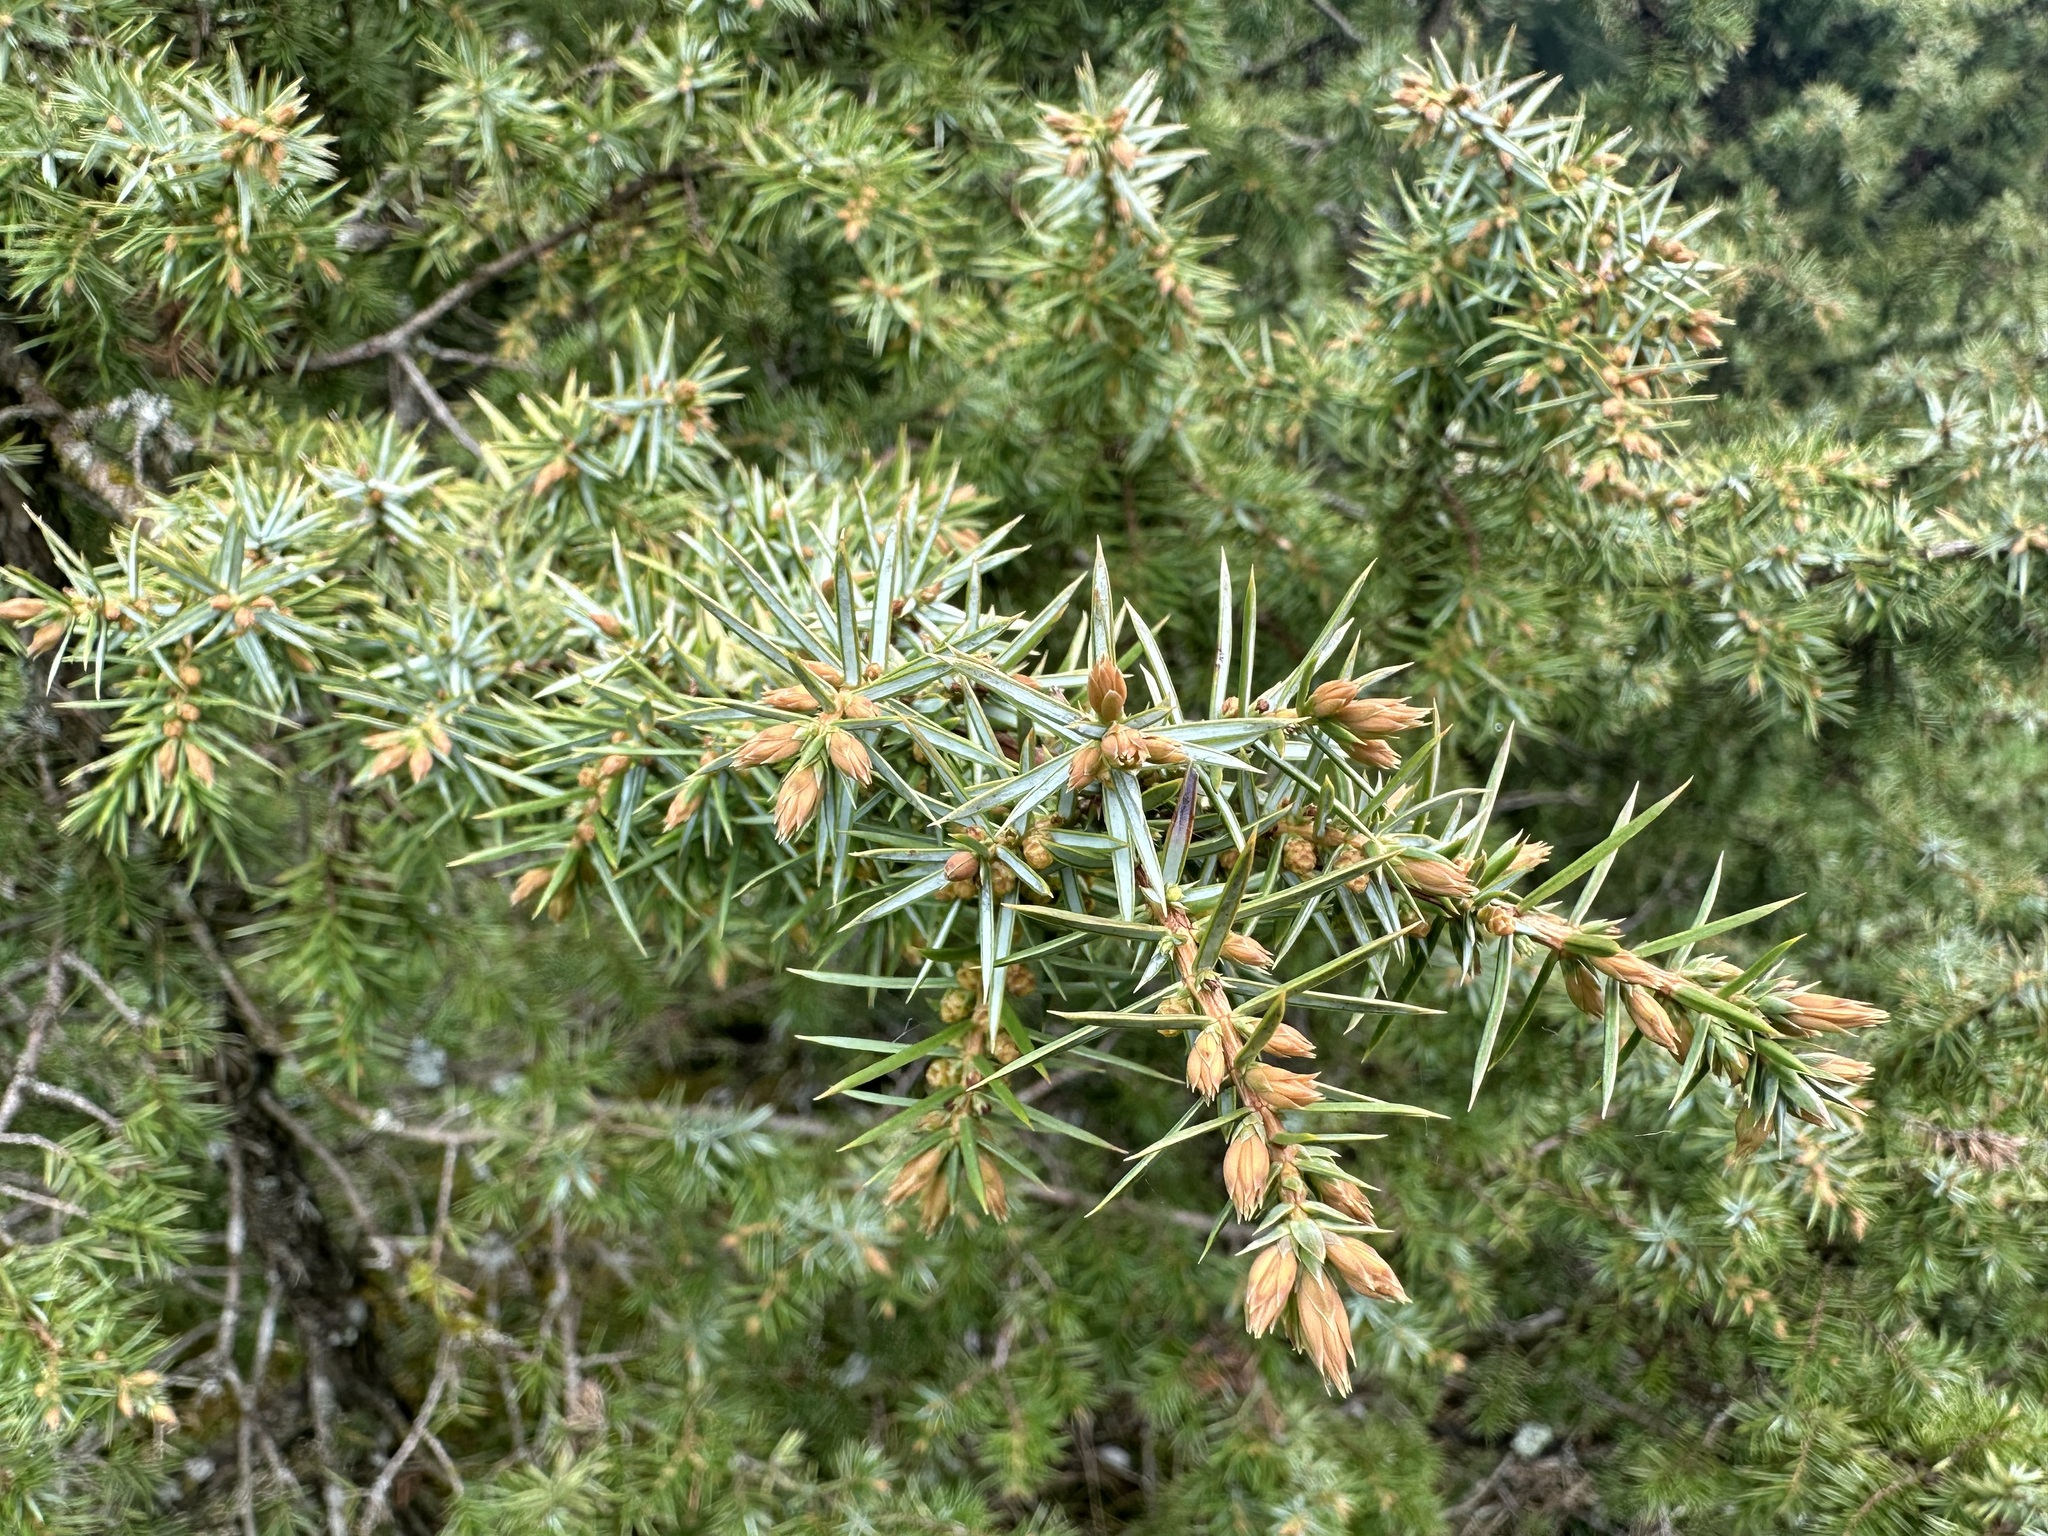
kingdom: Plantae
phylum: Tracheophyta
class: Pinopsida
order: Pinales
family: Cupressaceae
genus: Juniperus
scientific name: Juniperus communis
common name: Common juniper
